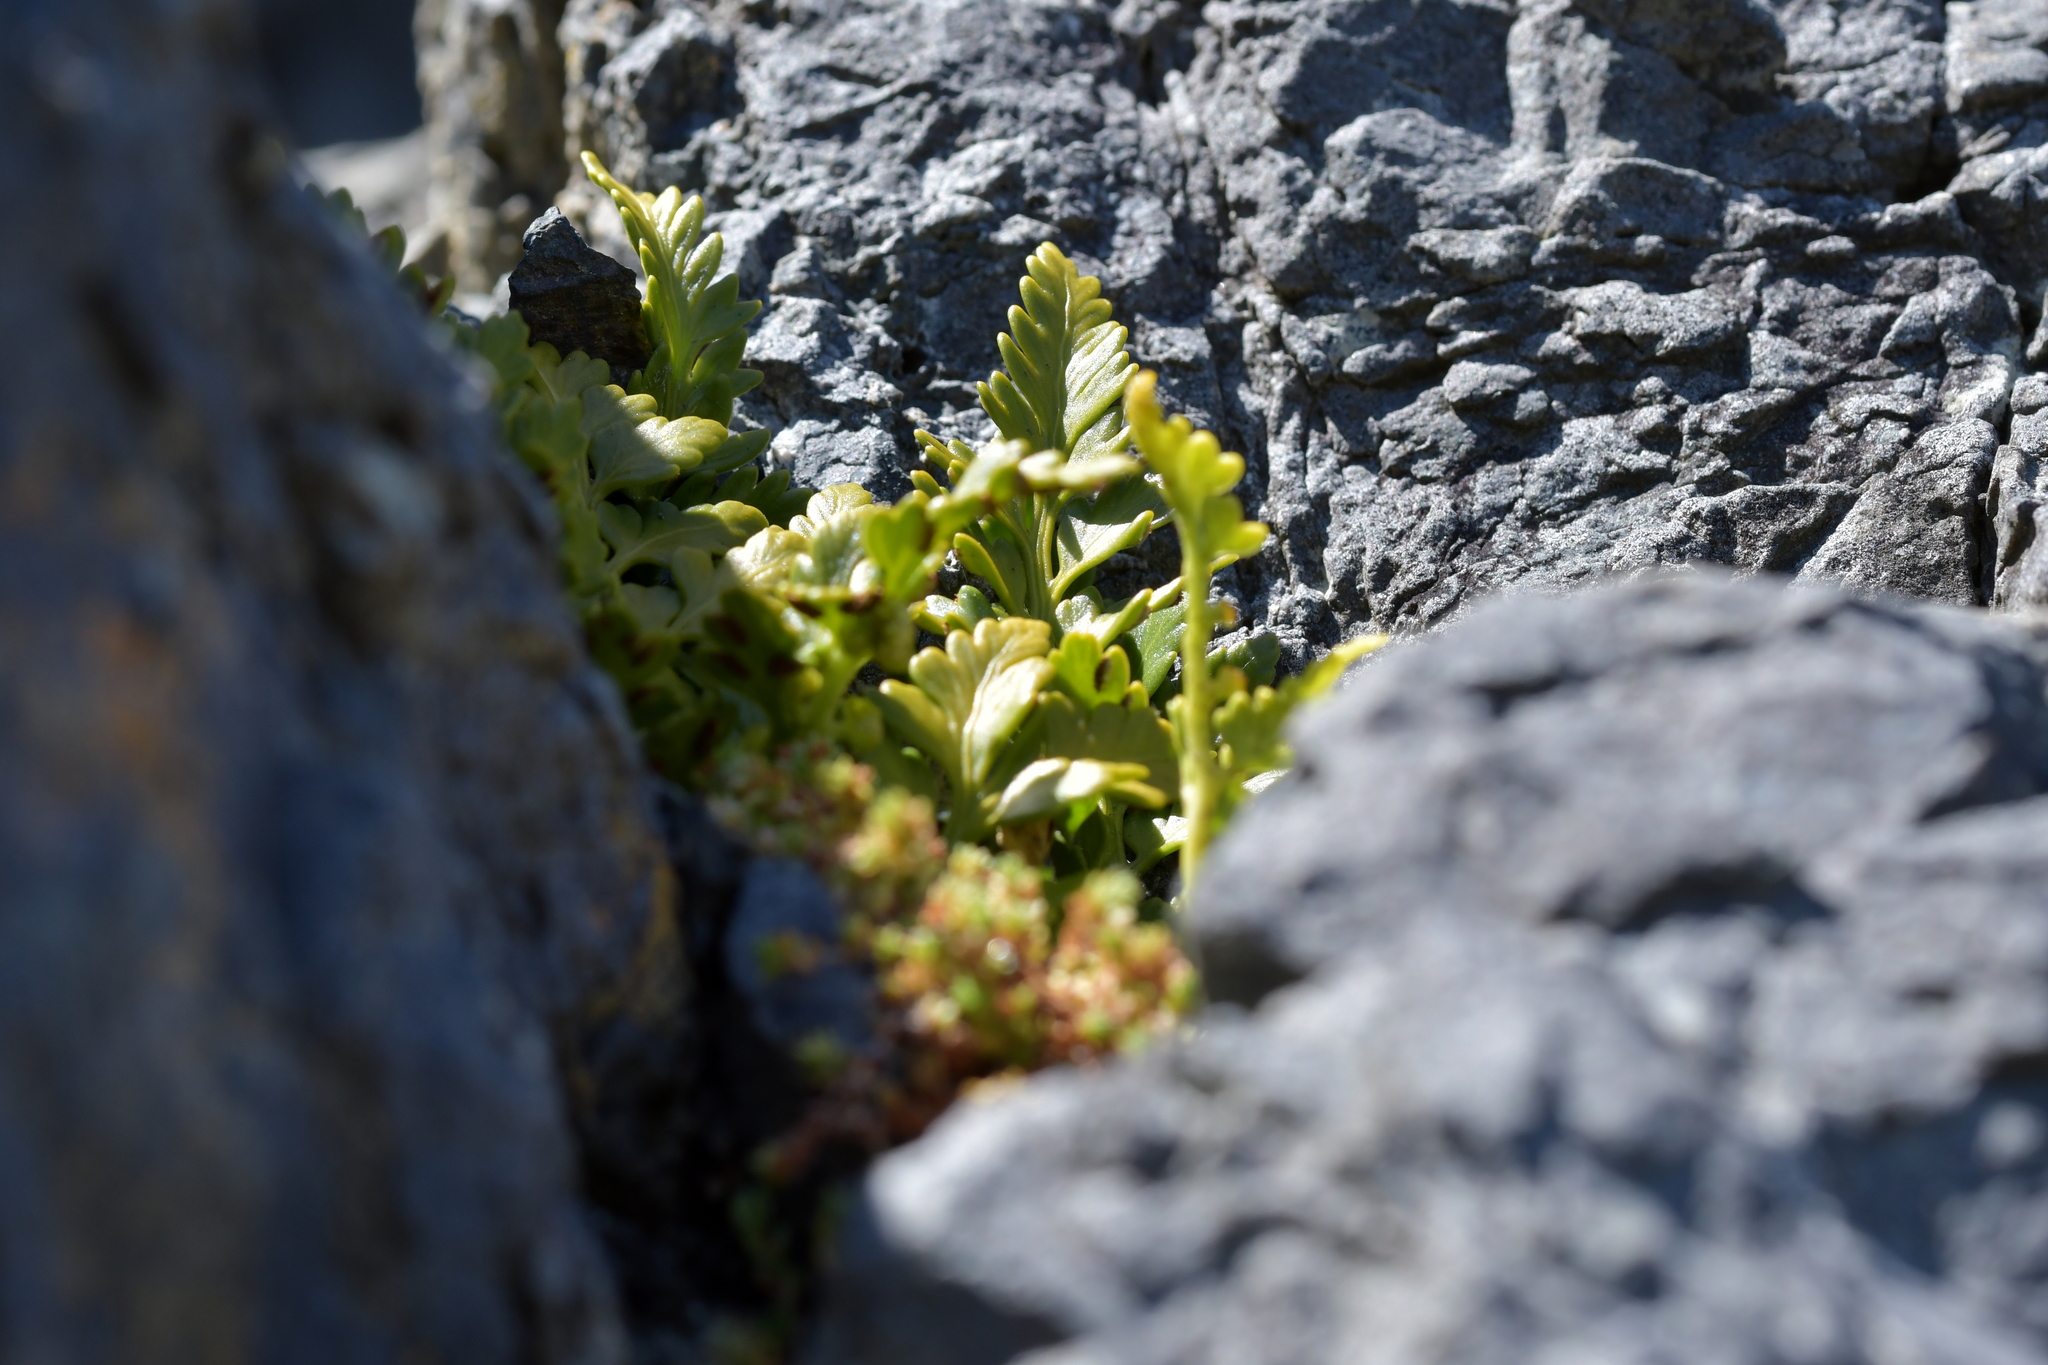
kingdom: Plantae
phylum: Tracheophyta
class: Polypodiopsida
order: Polypodiales
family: Aspleniaceae
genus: Asplenium
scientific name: Asplenium appendiculatum
